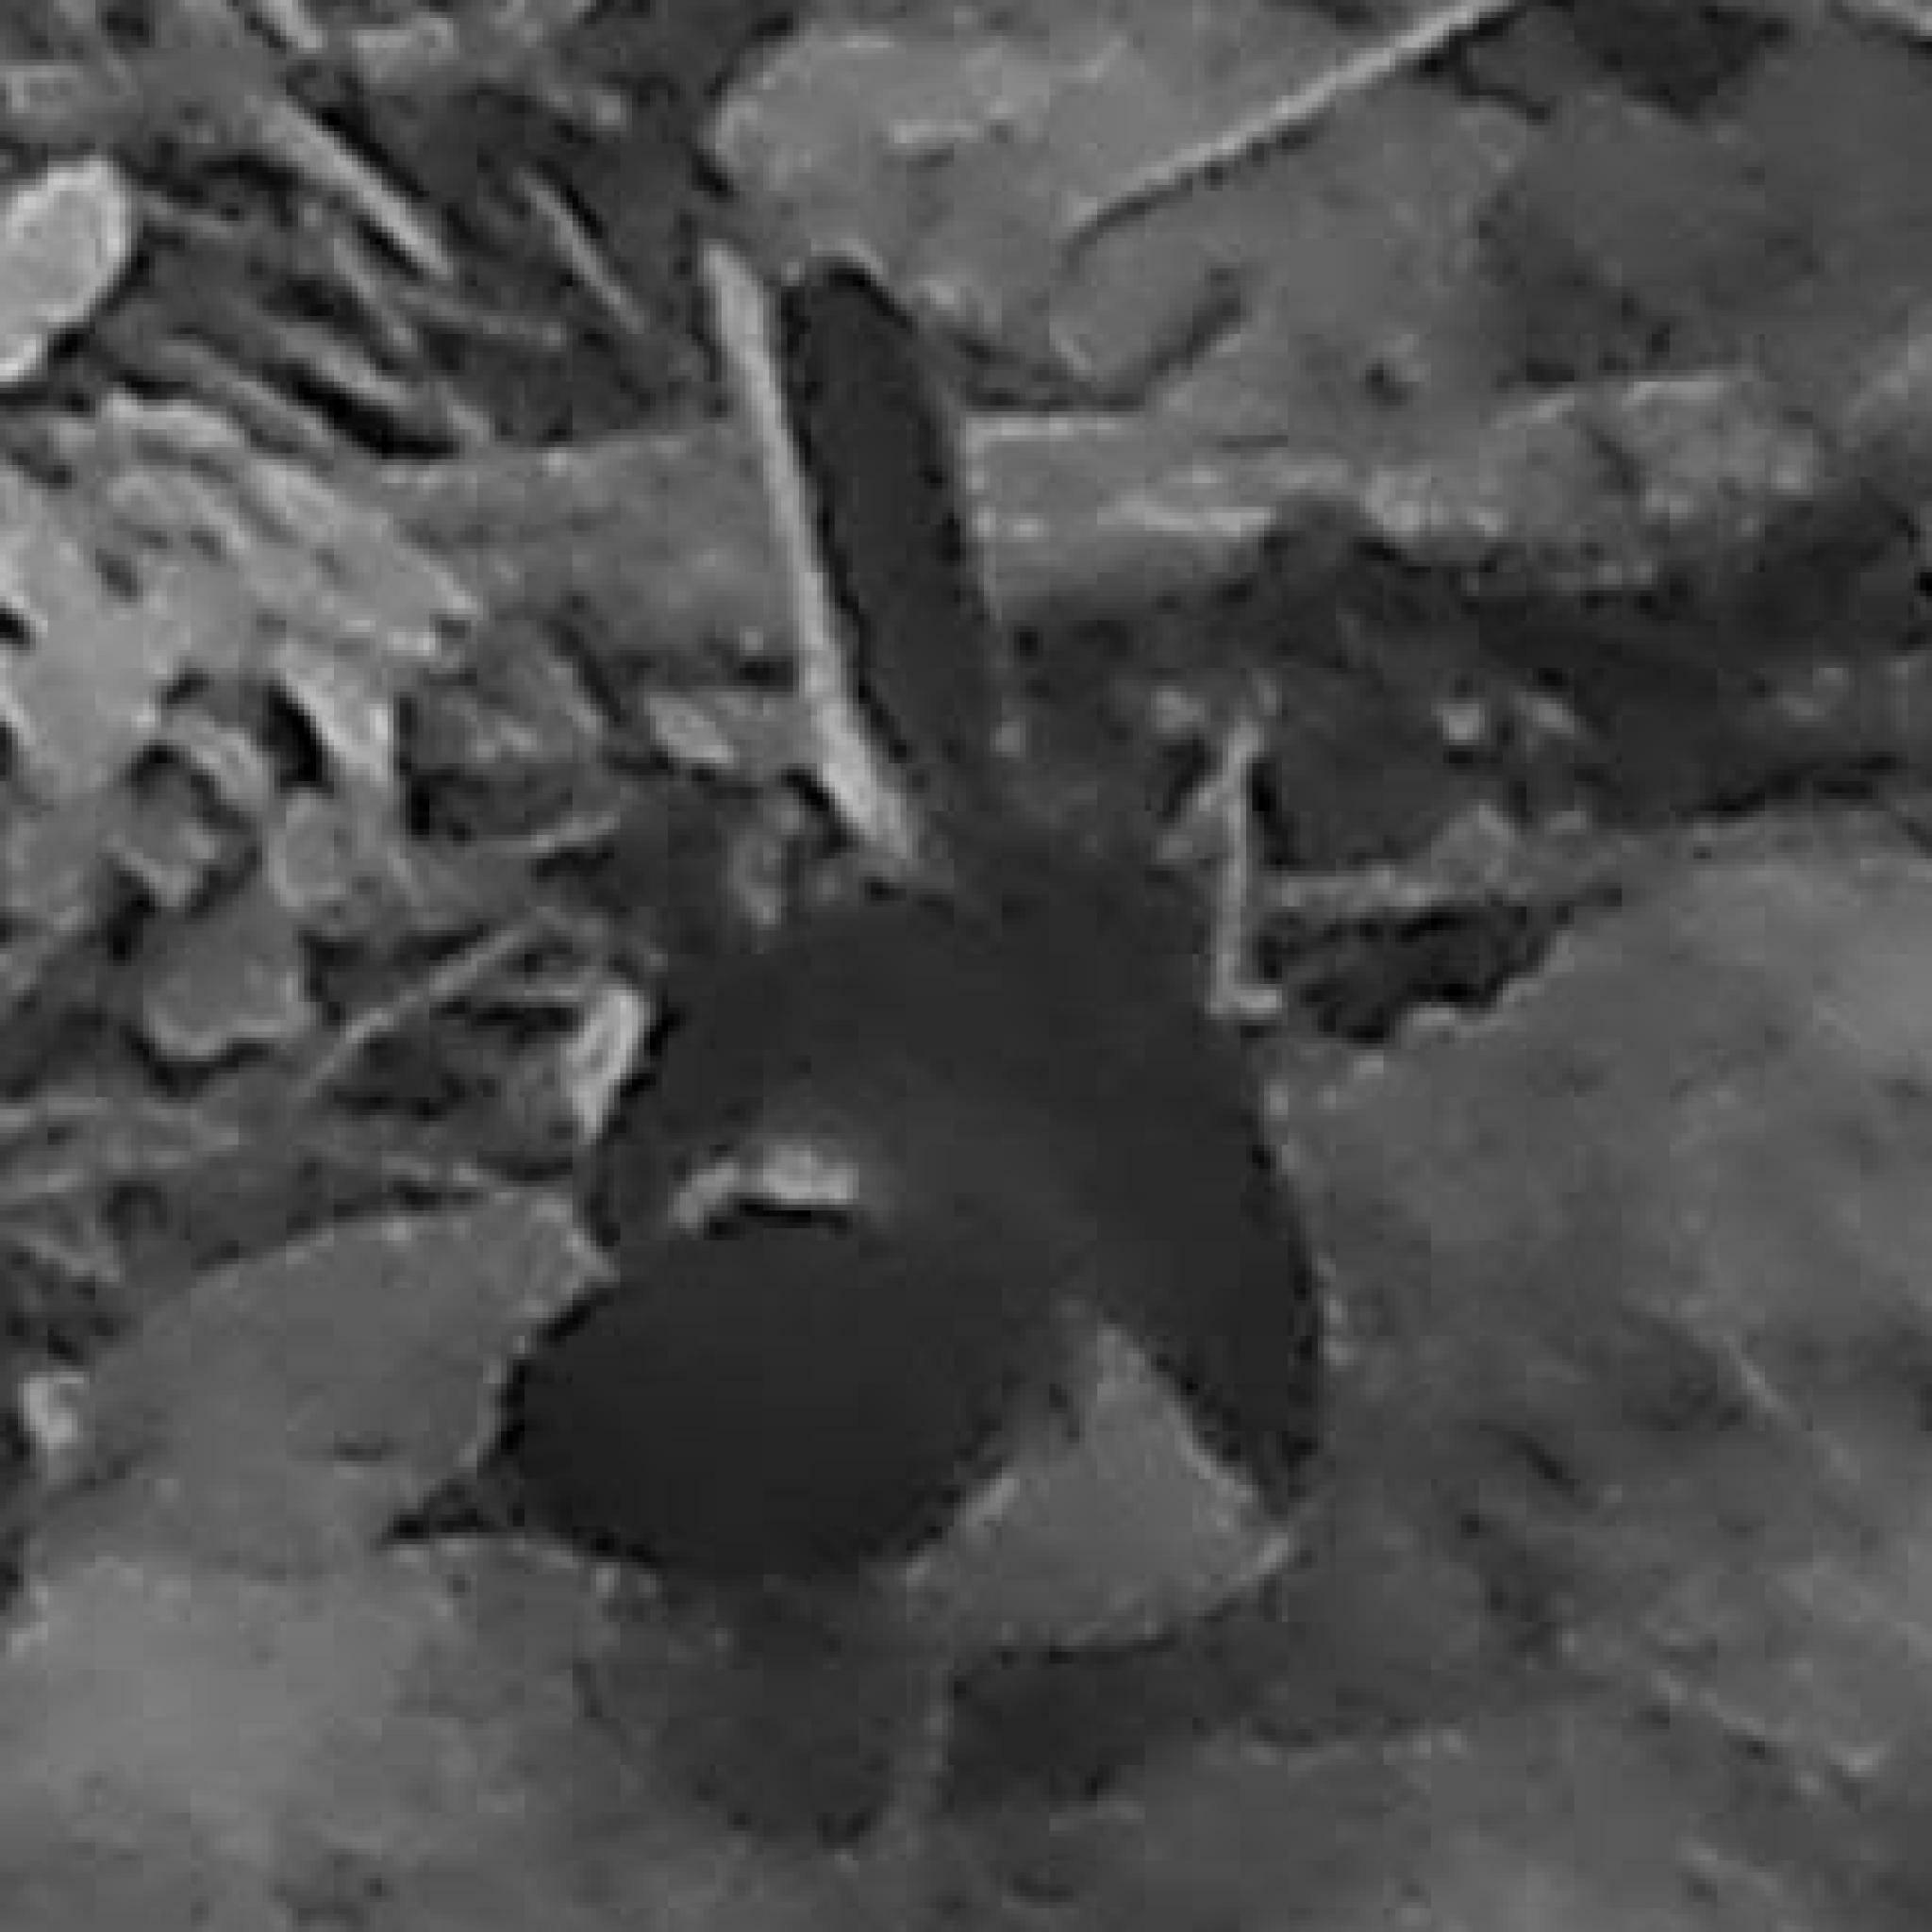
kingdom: Animalia
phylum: Chordata
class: Aves
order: Passeriformes
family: Muscicapidae
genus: Cossypha
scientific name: Cossypha dichroa
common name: Chorister robin-chat
